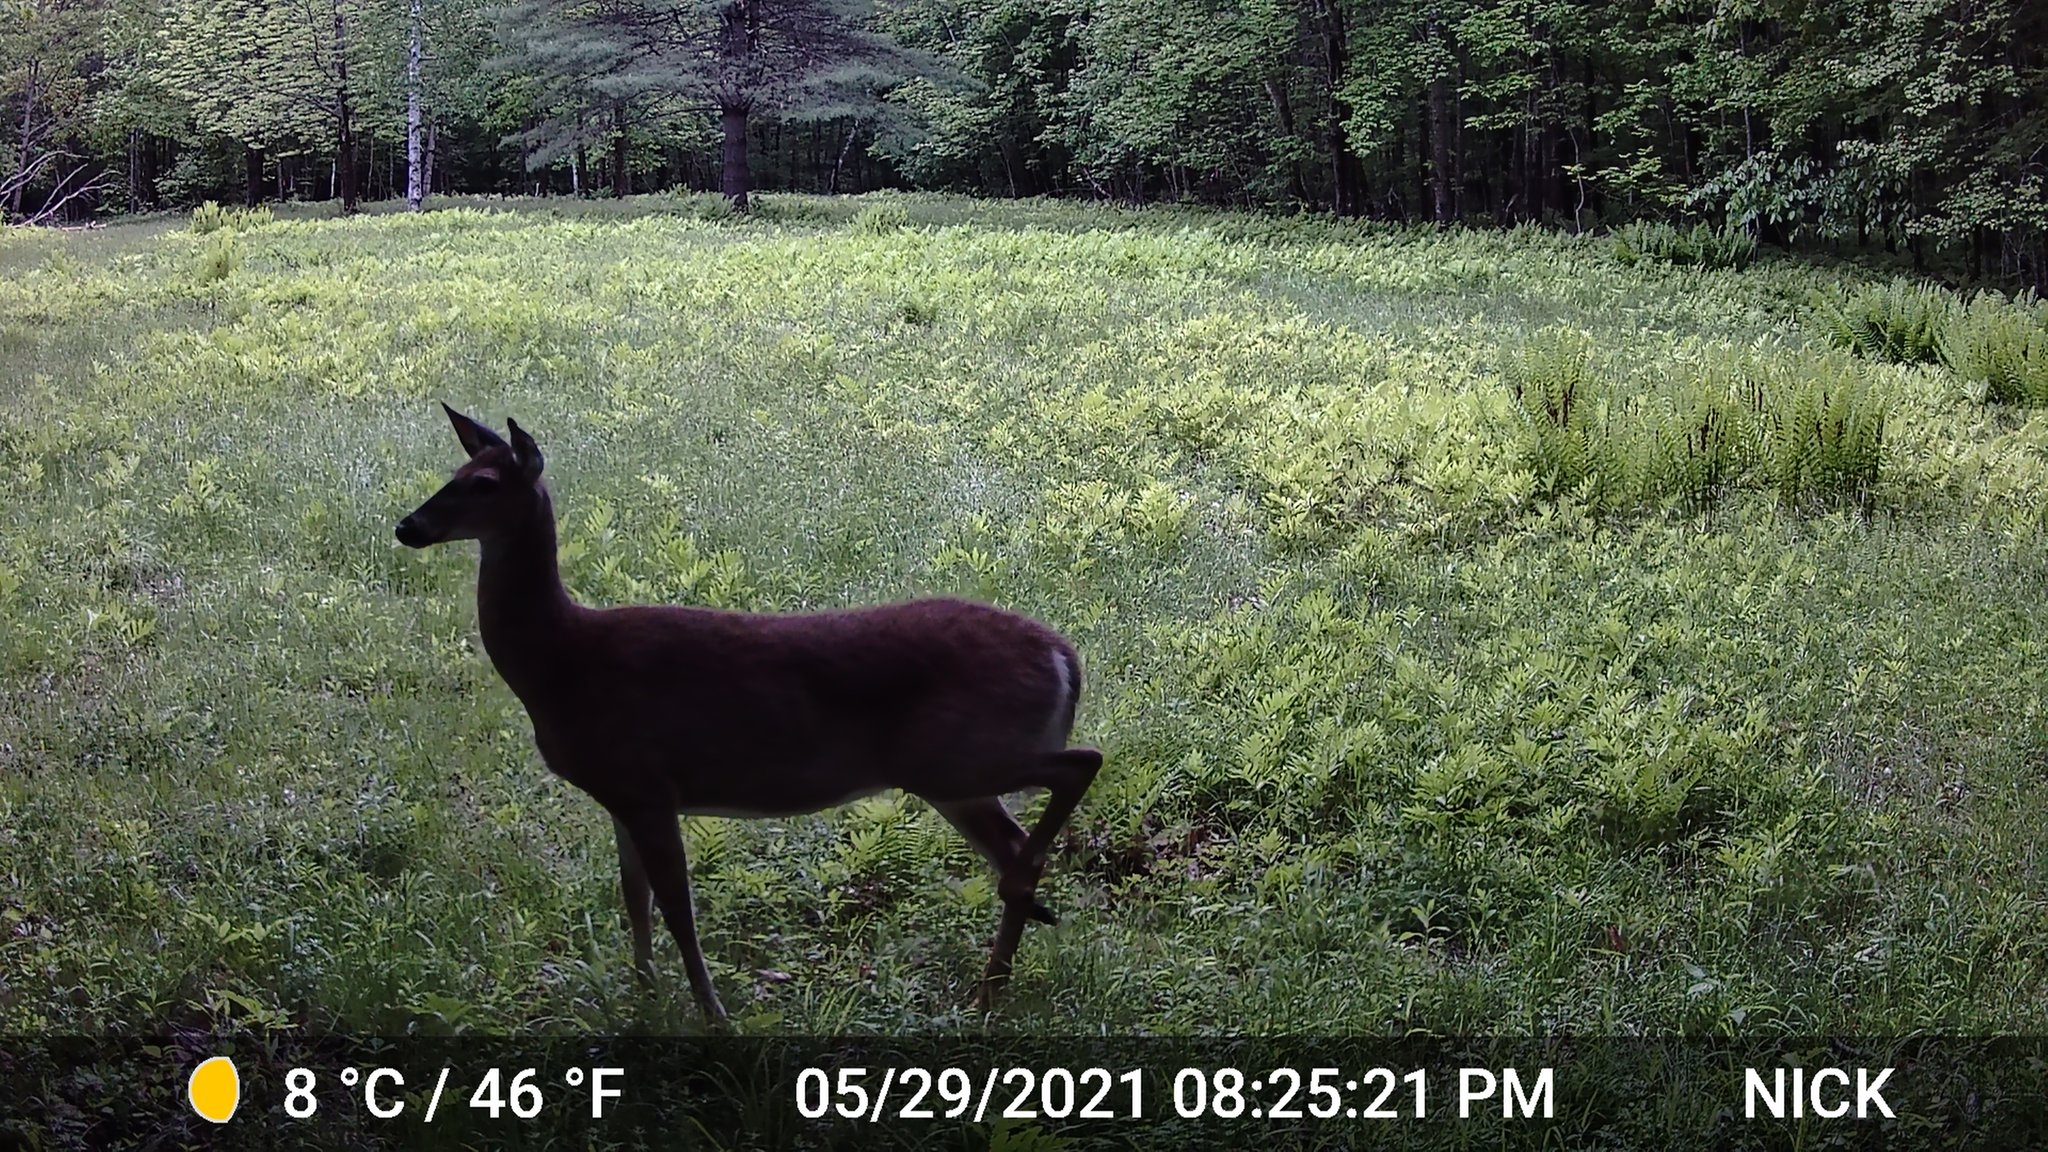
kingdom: Animalia
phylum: Chordata
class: Mammalia
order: Artiodactyla
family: Cervidae
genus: Odocoileus
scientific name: Odocoileus virginianus
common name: White-tailed deer
